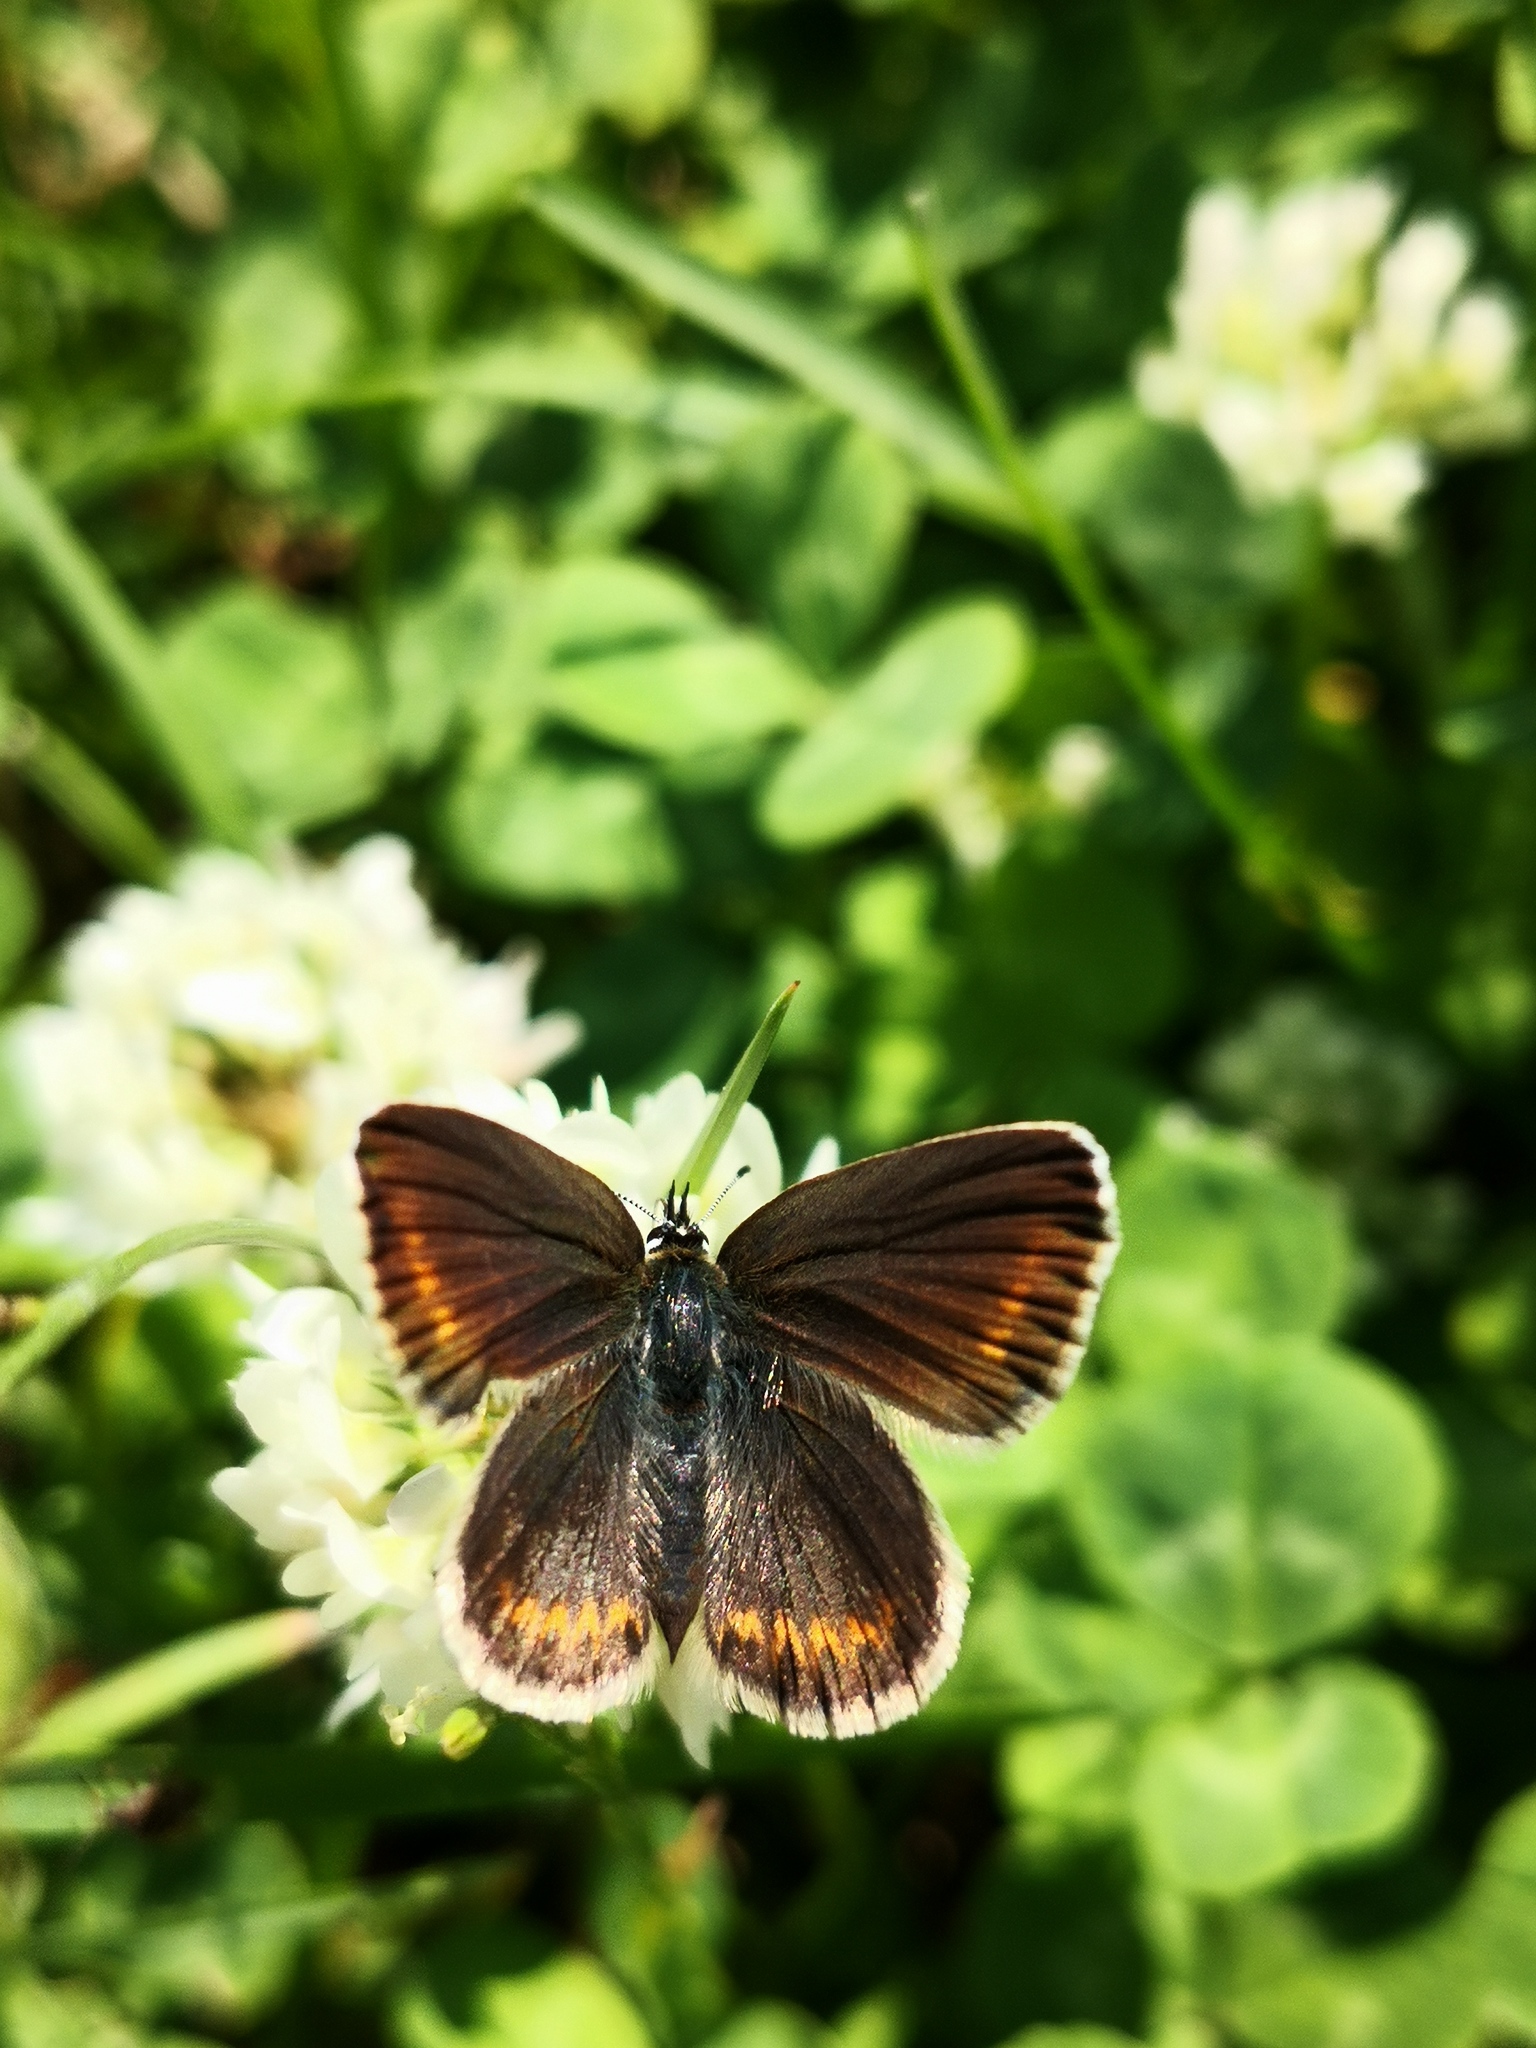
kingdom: Animalia
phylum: Arthropoda
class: Insecta
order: Lepidoptera
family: Lycaenidae
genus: Plebejus
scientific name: Plebejus argus
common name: Silver-studded blue
